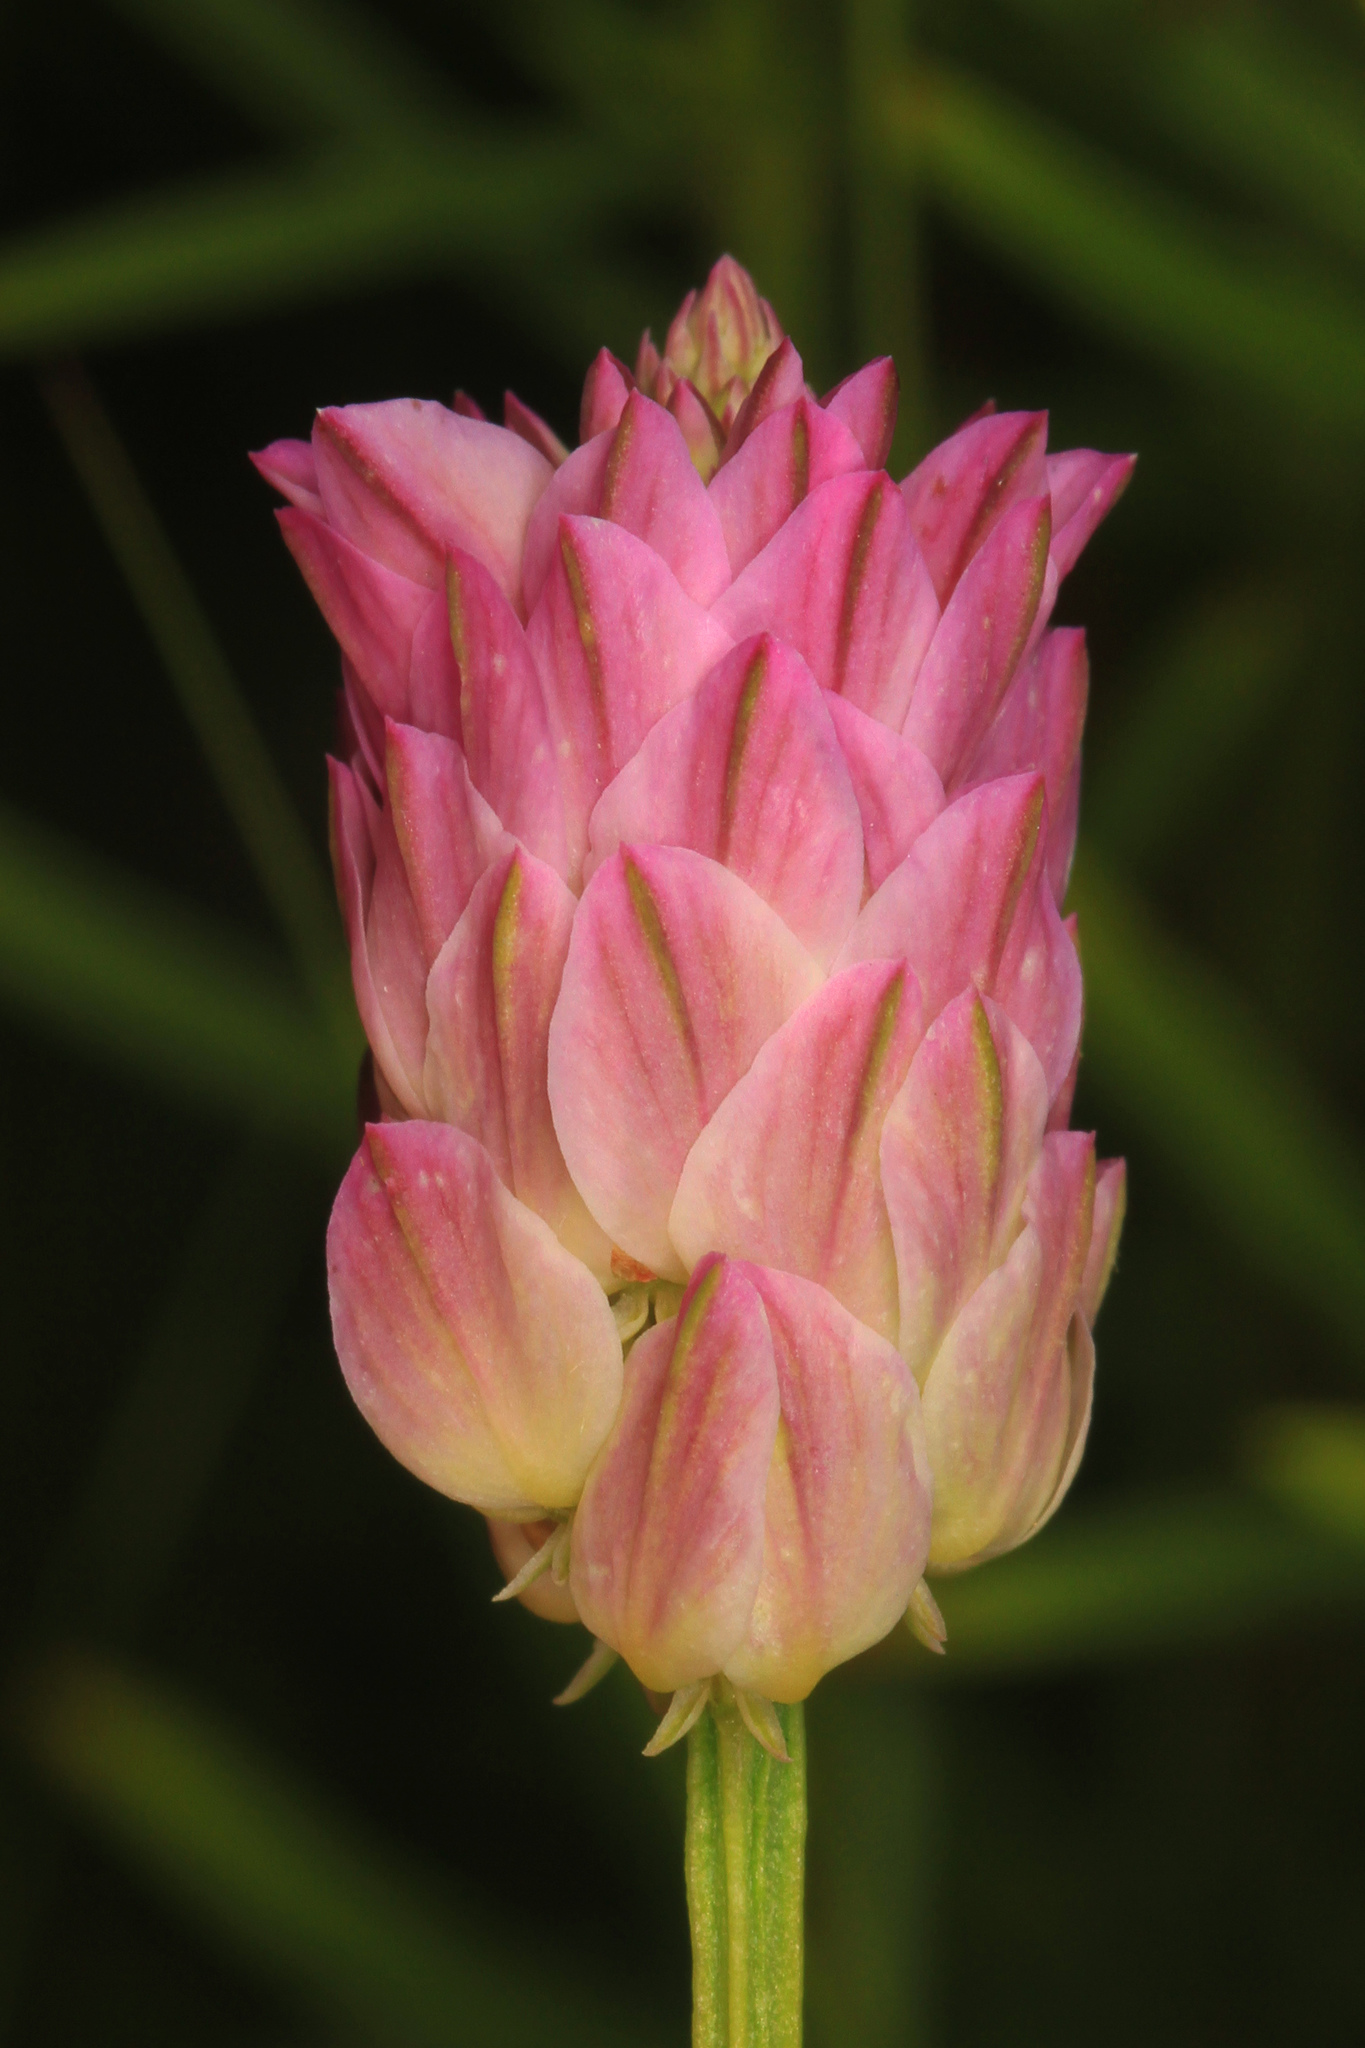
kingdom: Plantae
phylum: Tracheophyta
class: Magnoliopsida
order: Fabales
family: Polygalaceae
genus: Polygala
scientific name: Polygala sanguinea
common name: Blood milkwort
